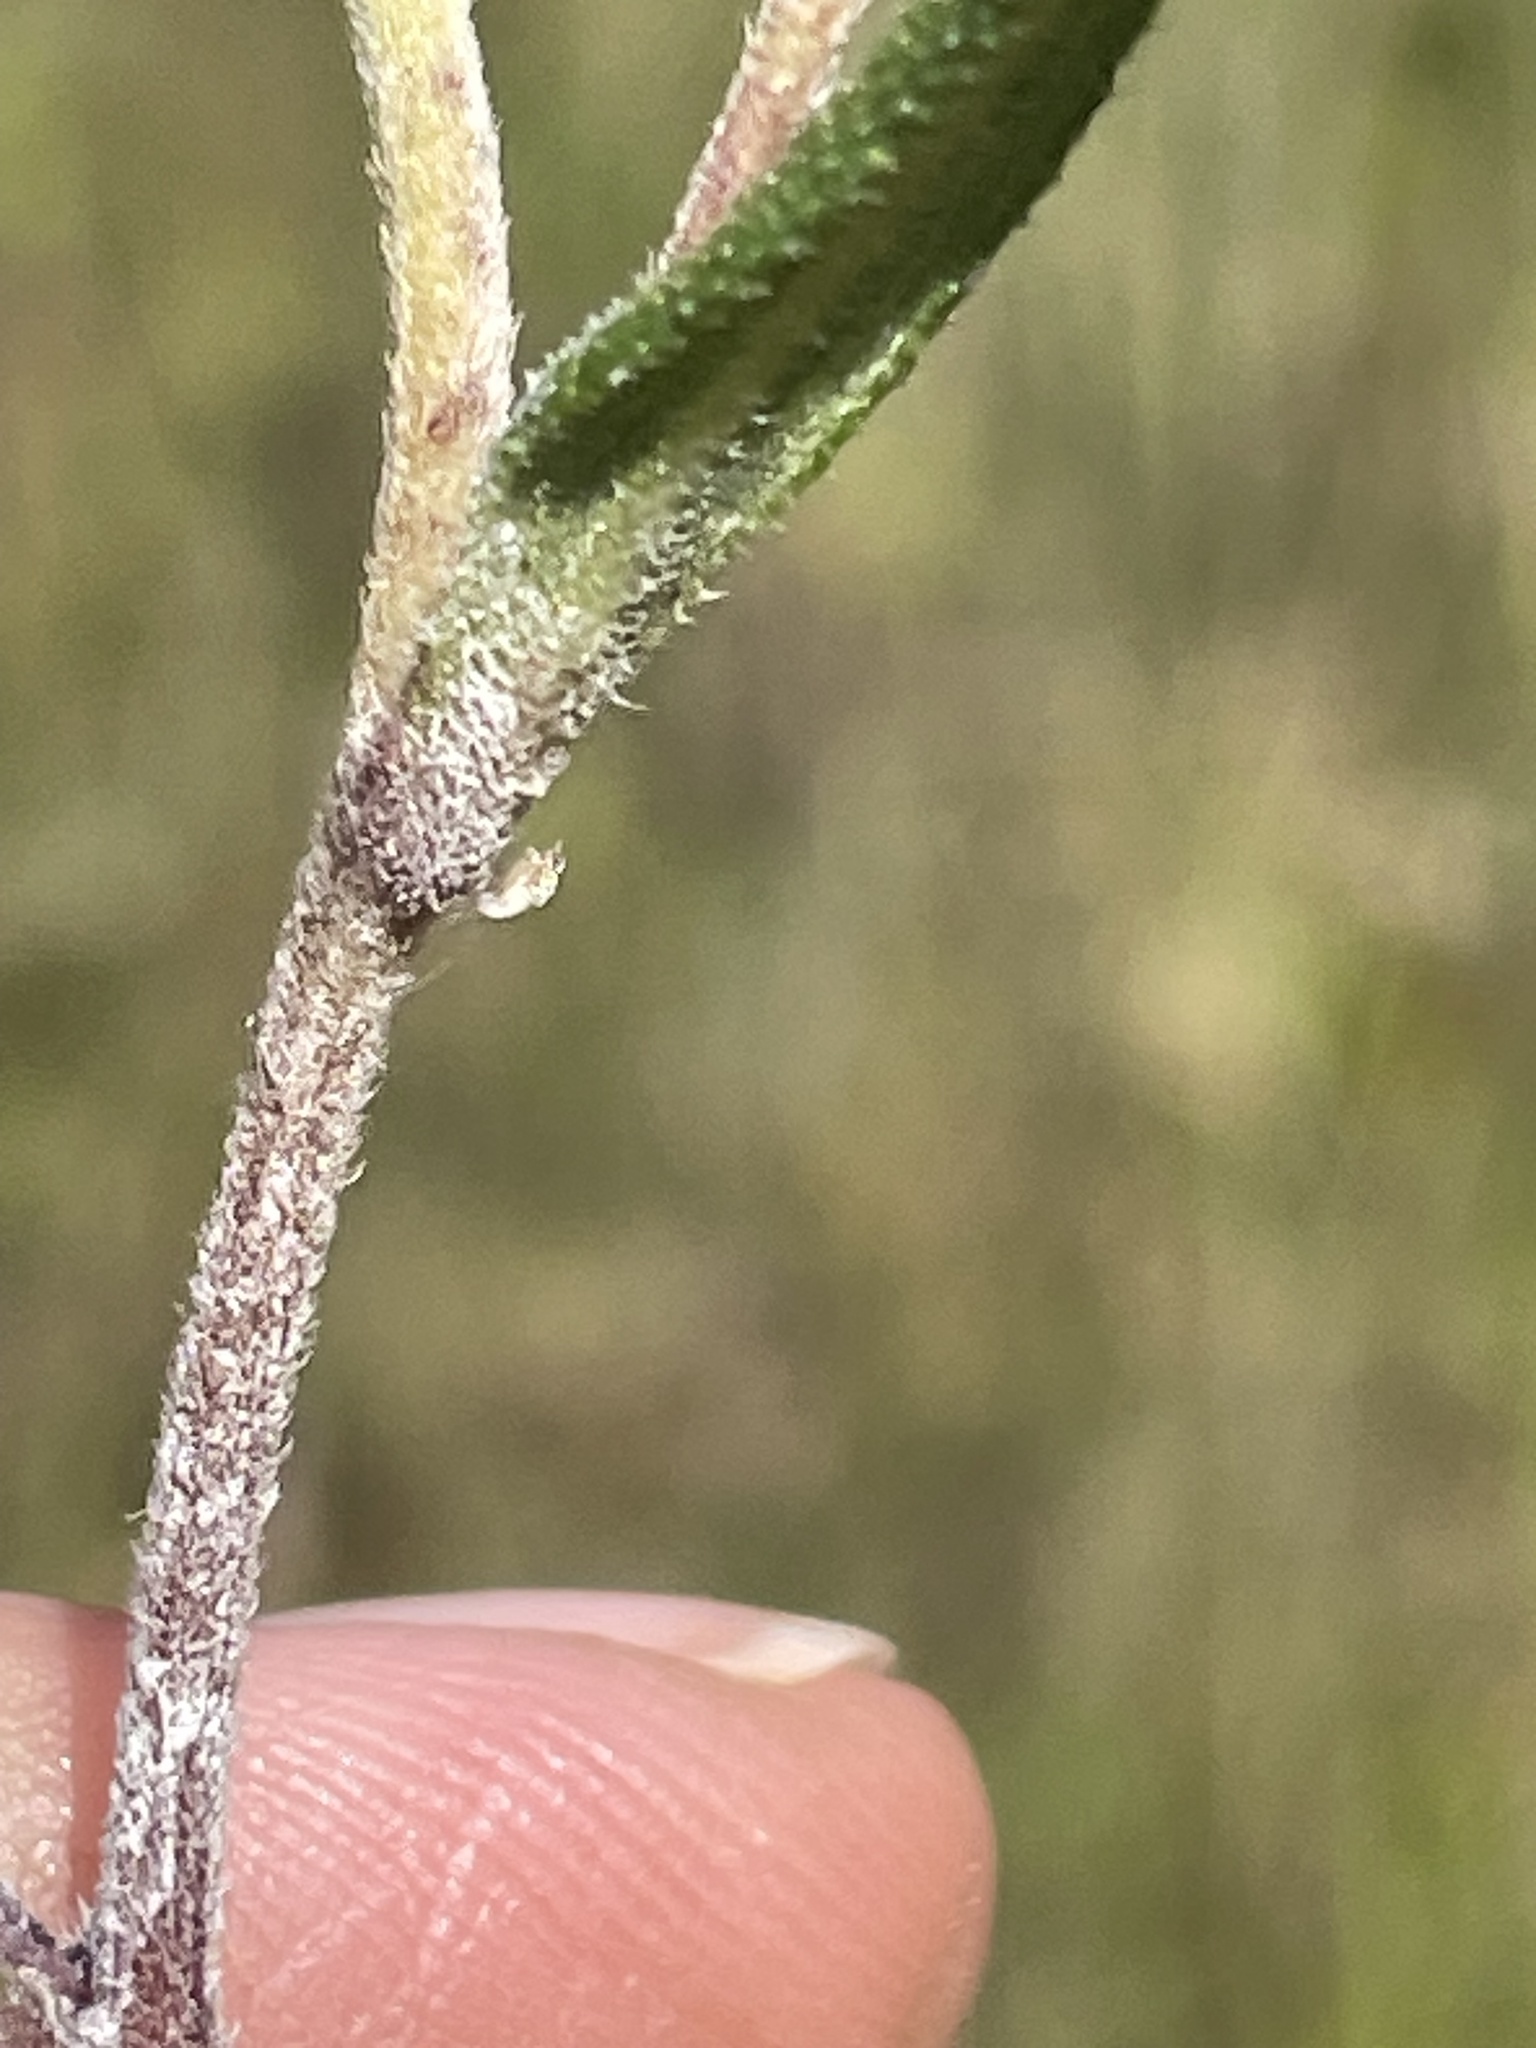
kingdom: Plantae
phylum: Tracheophyta
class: Magnoliopsida
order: Asterales
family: Asteraceae
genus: Helianthus
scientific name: Helianthus schweinitzii
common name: Schweinitz's sunflower
